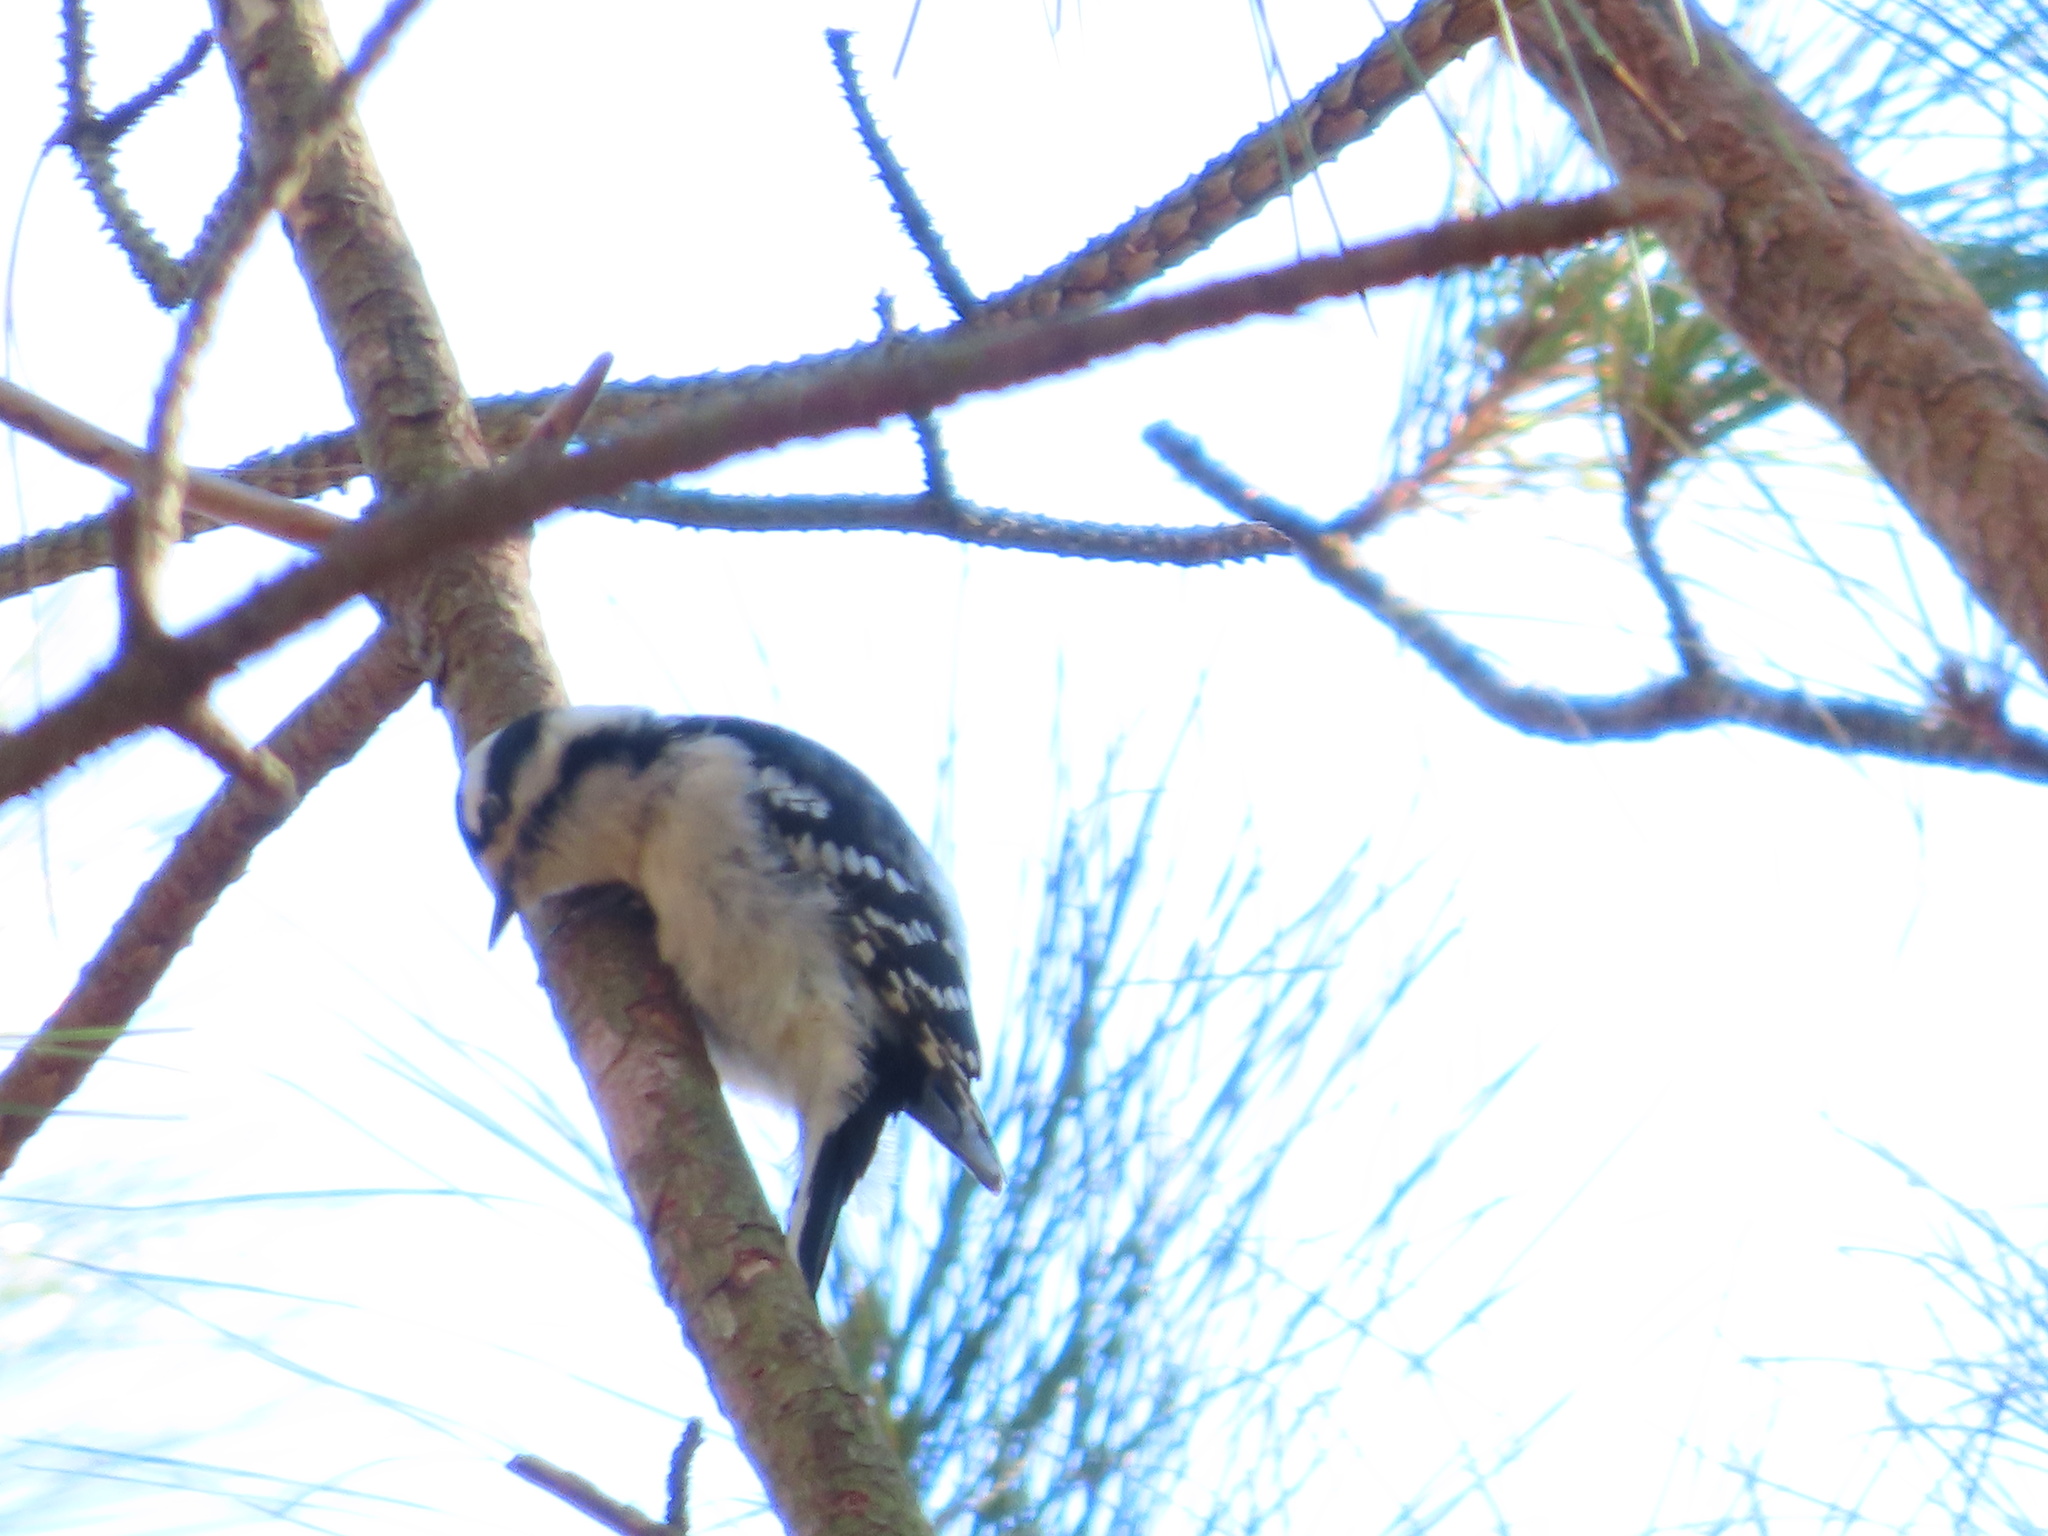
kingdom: Animalia
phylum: Chordata
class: Aves
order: Piciformes
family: Picidae
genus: Dryobates
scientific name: Dryobates pubescens
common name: Downy woodpecker
